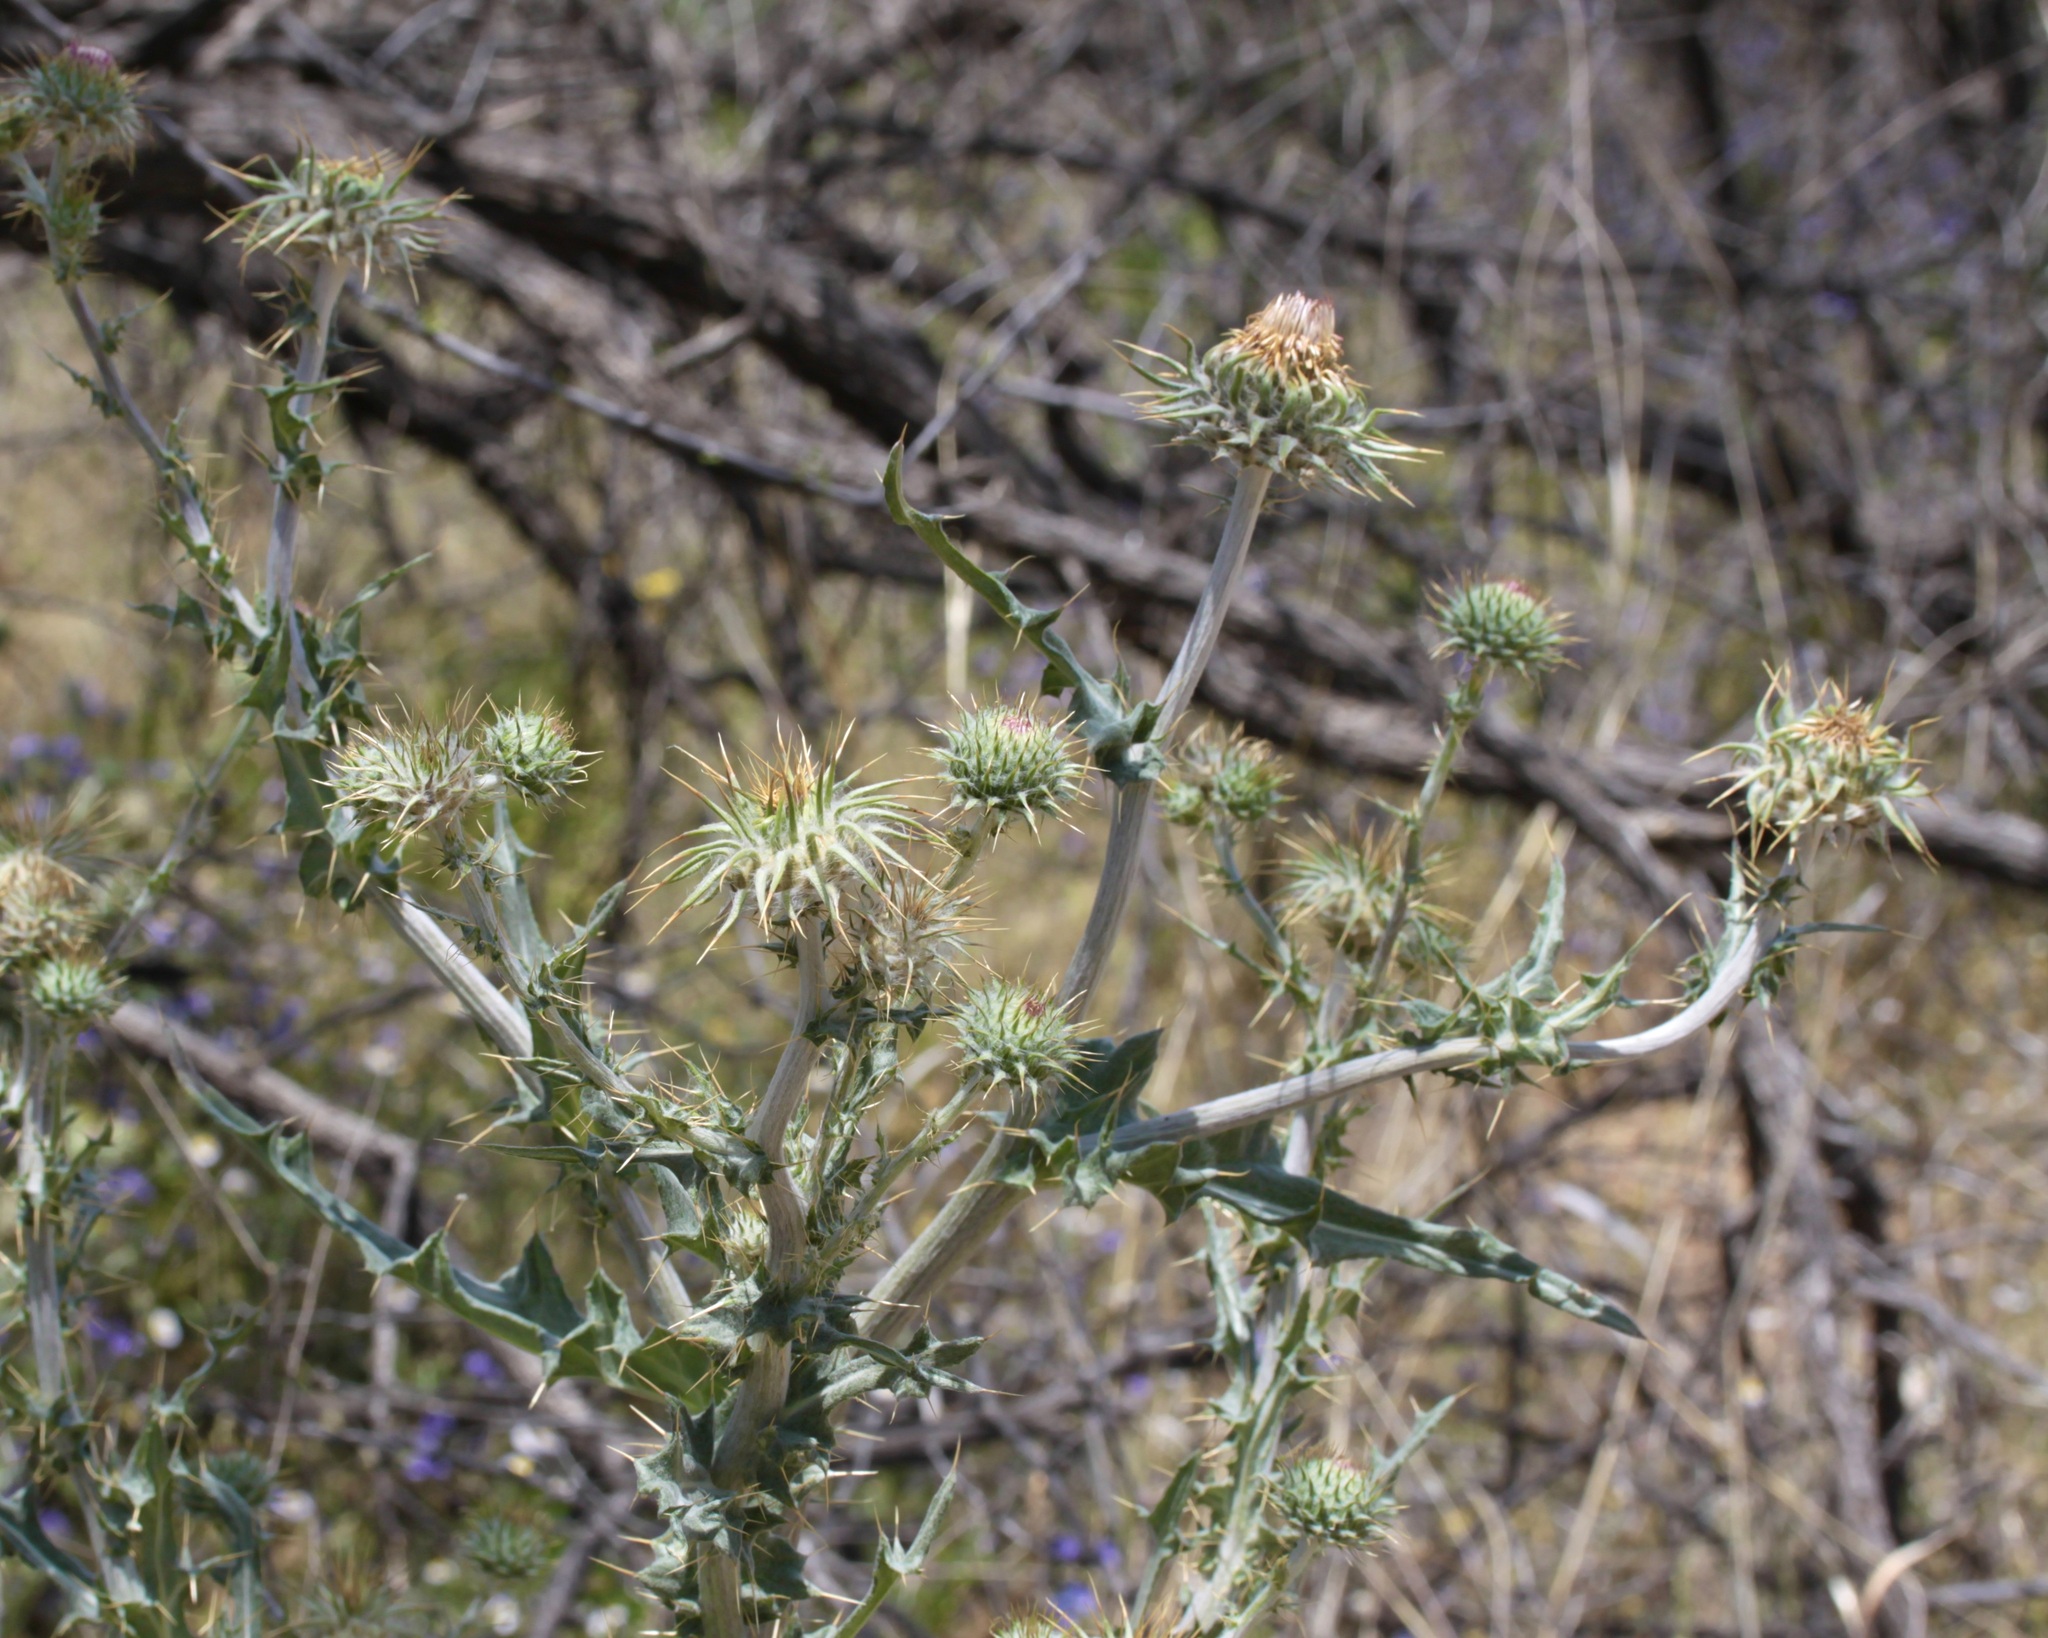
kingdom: Plantae
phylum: Tracheophyta
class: Magnoliopsida
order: Asterales
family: Asteraceae
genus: Cirsium
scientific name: Cirsium neomexicanum
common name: New mexico thistle
